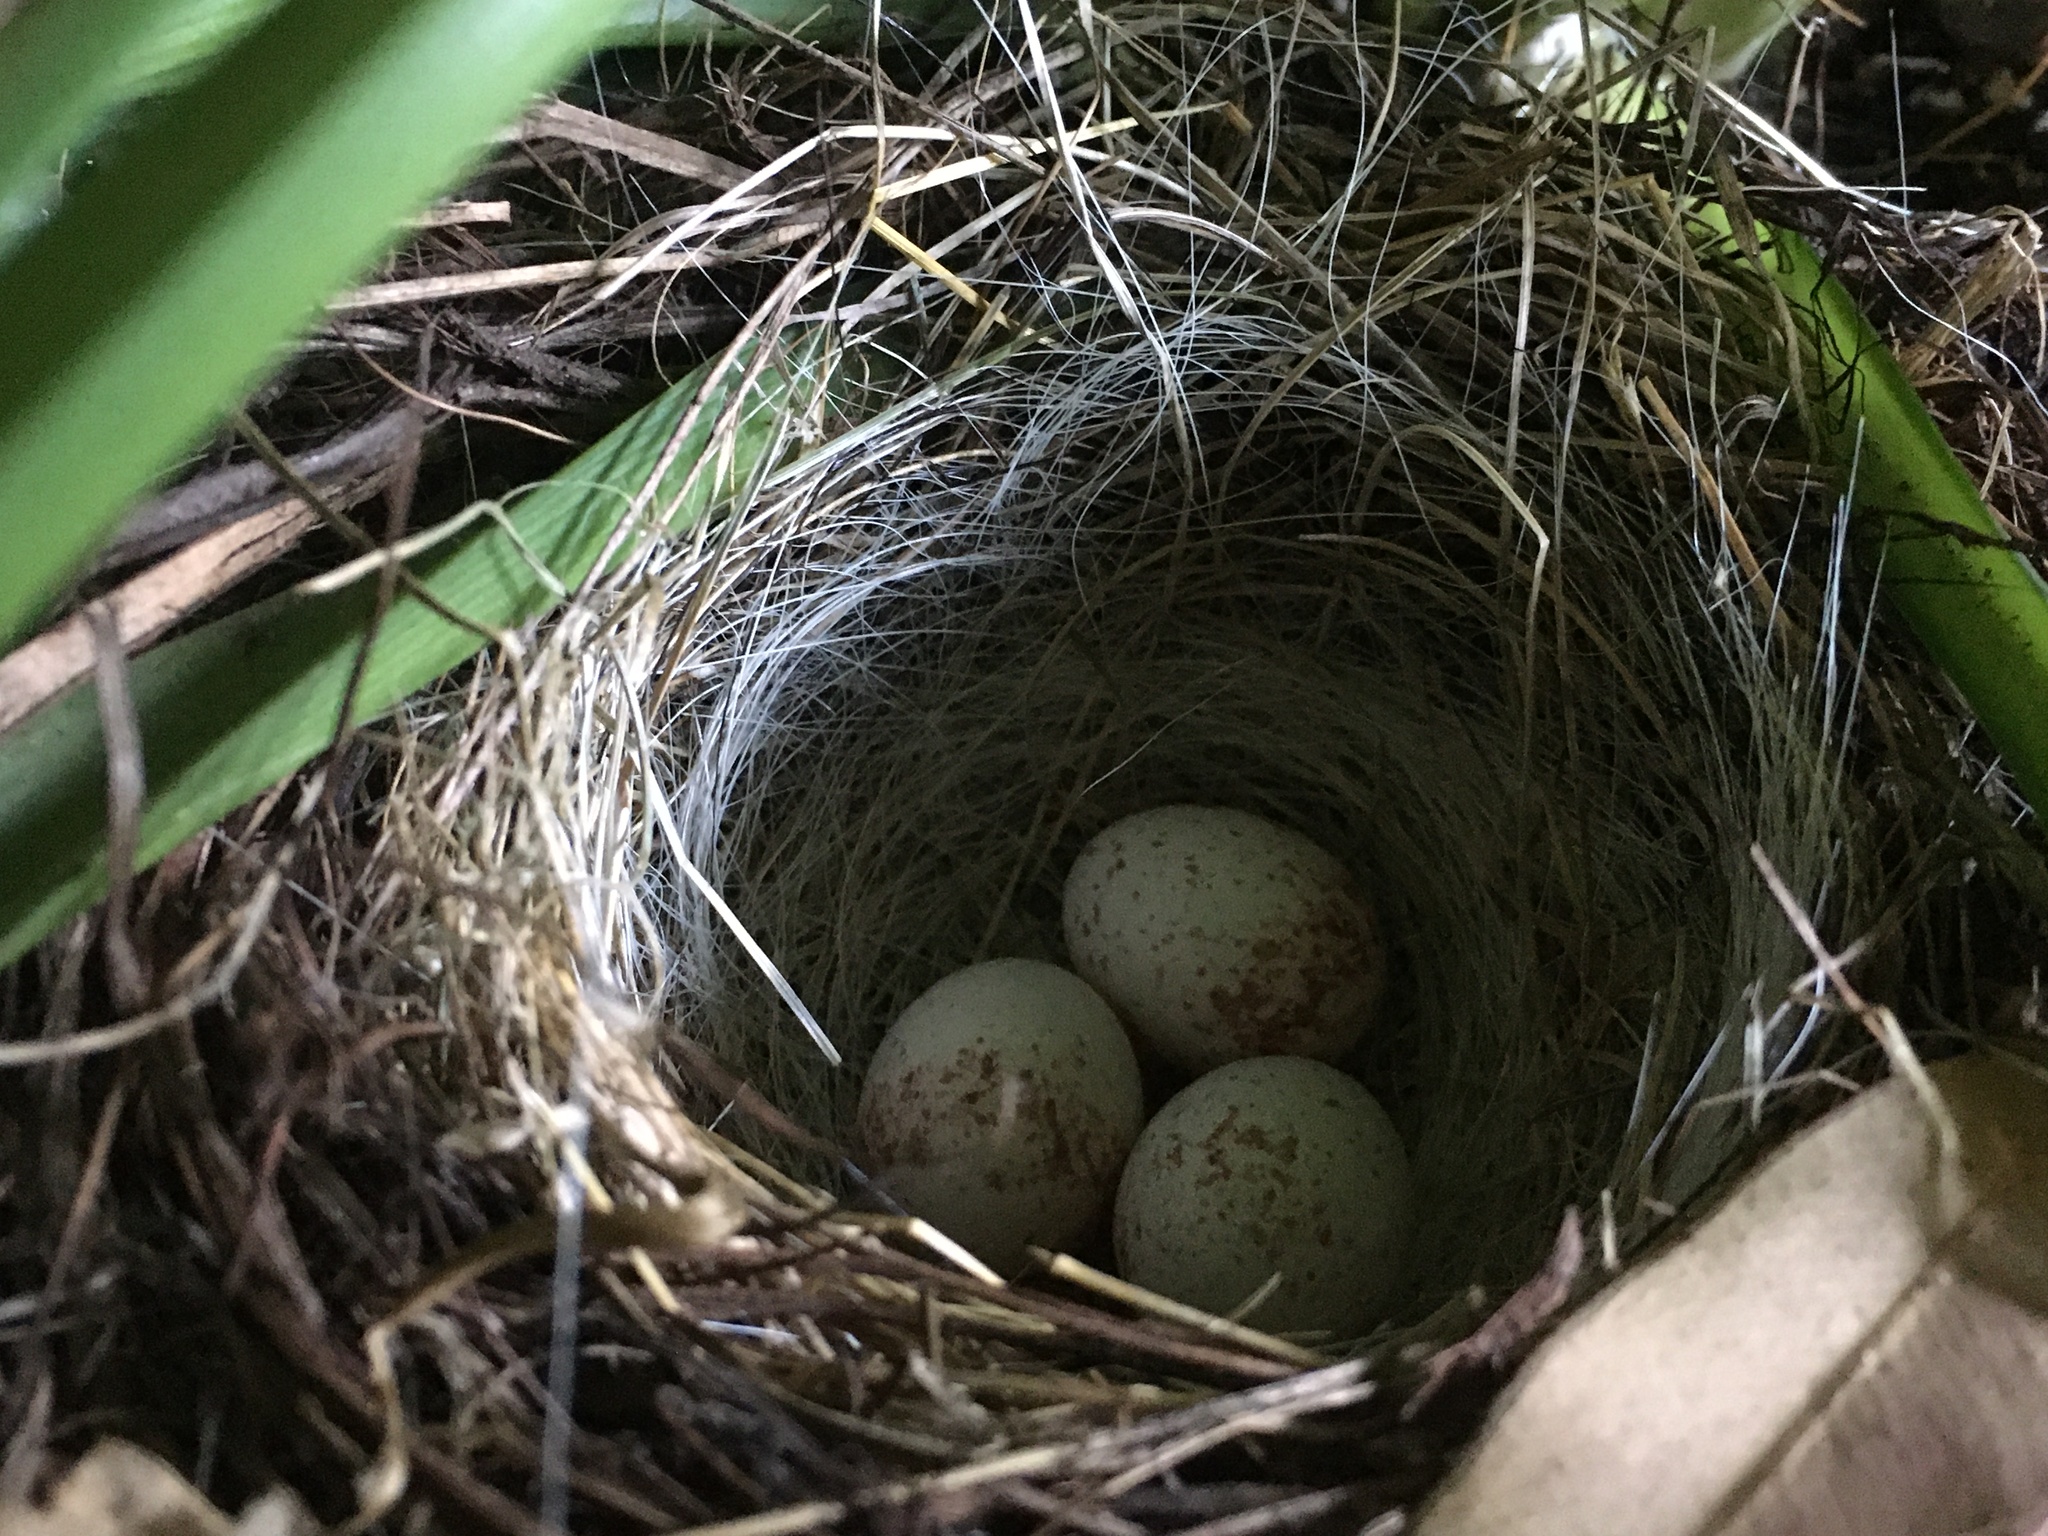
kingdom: Animalia
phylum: Chordata
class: Aves
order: Passeriformes
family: Passerellidae
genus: Junco
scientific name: Junco hyemalis
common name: Dark-eyed junco
